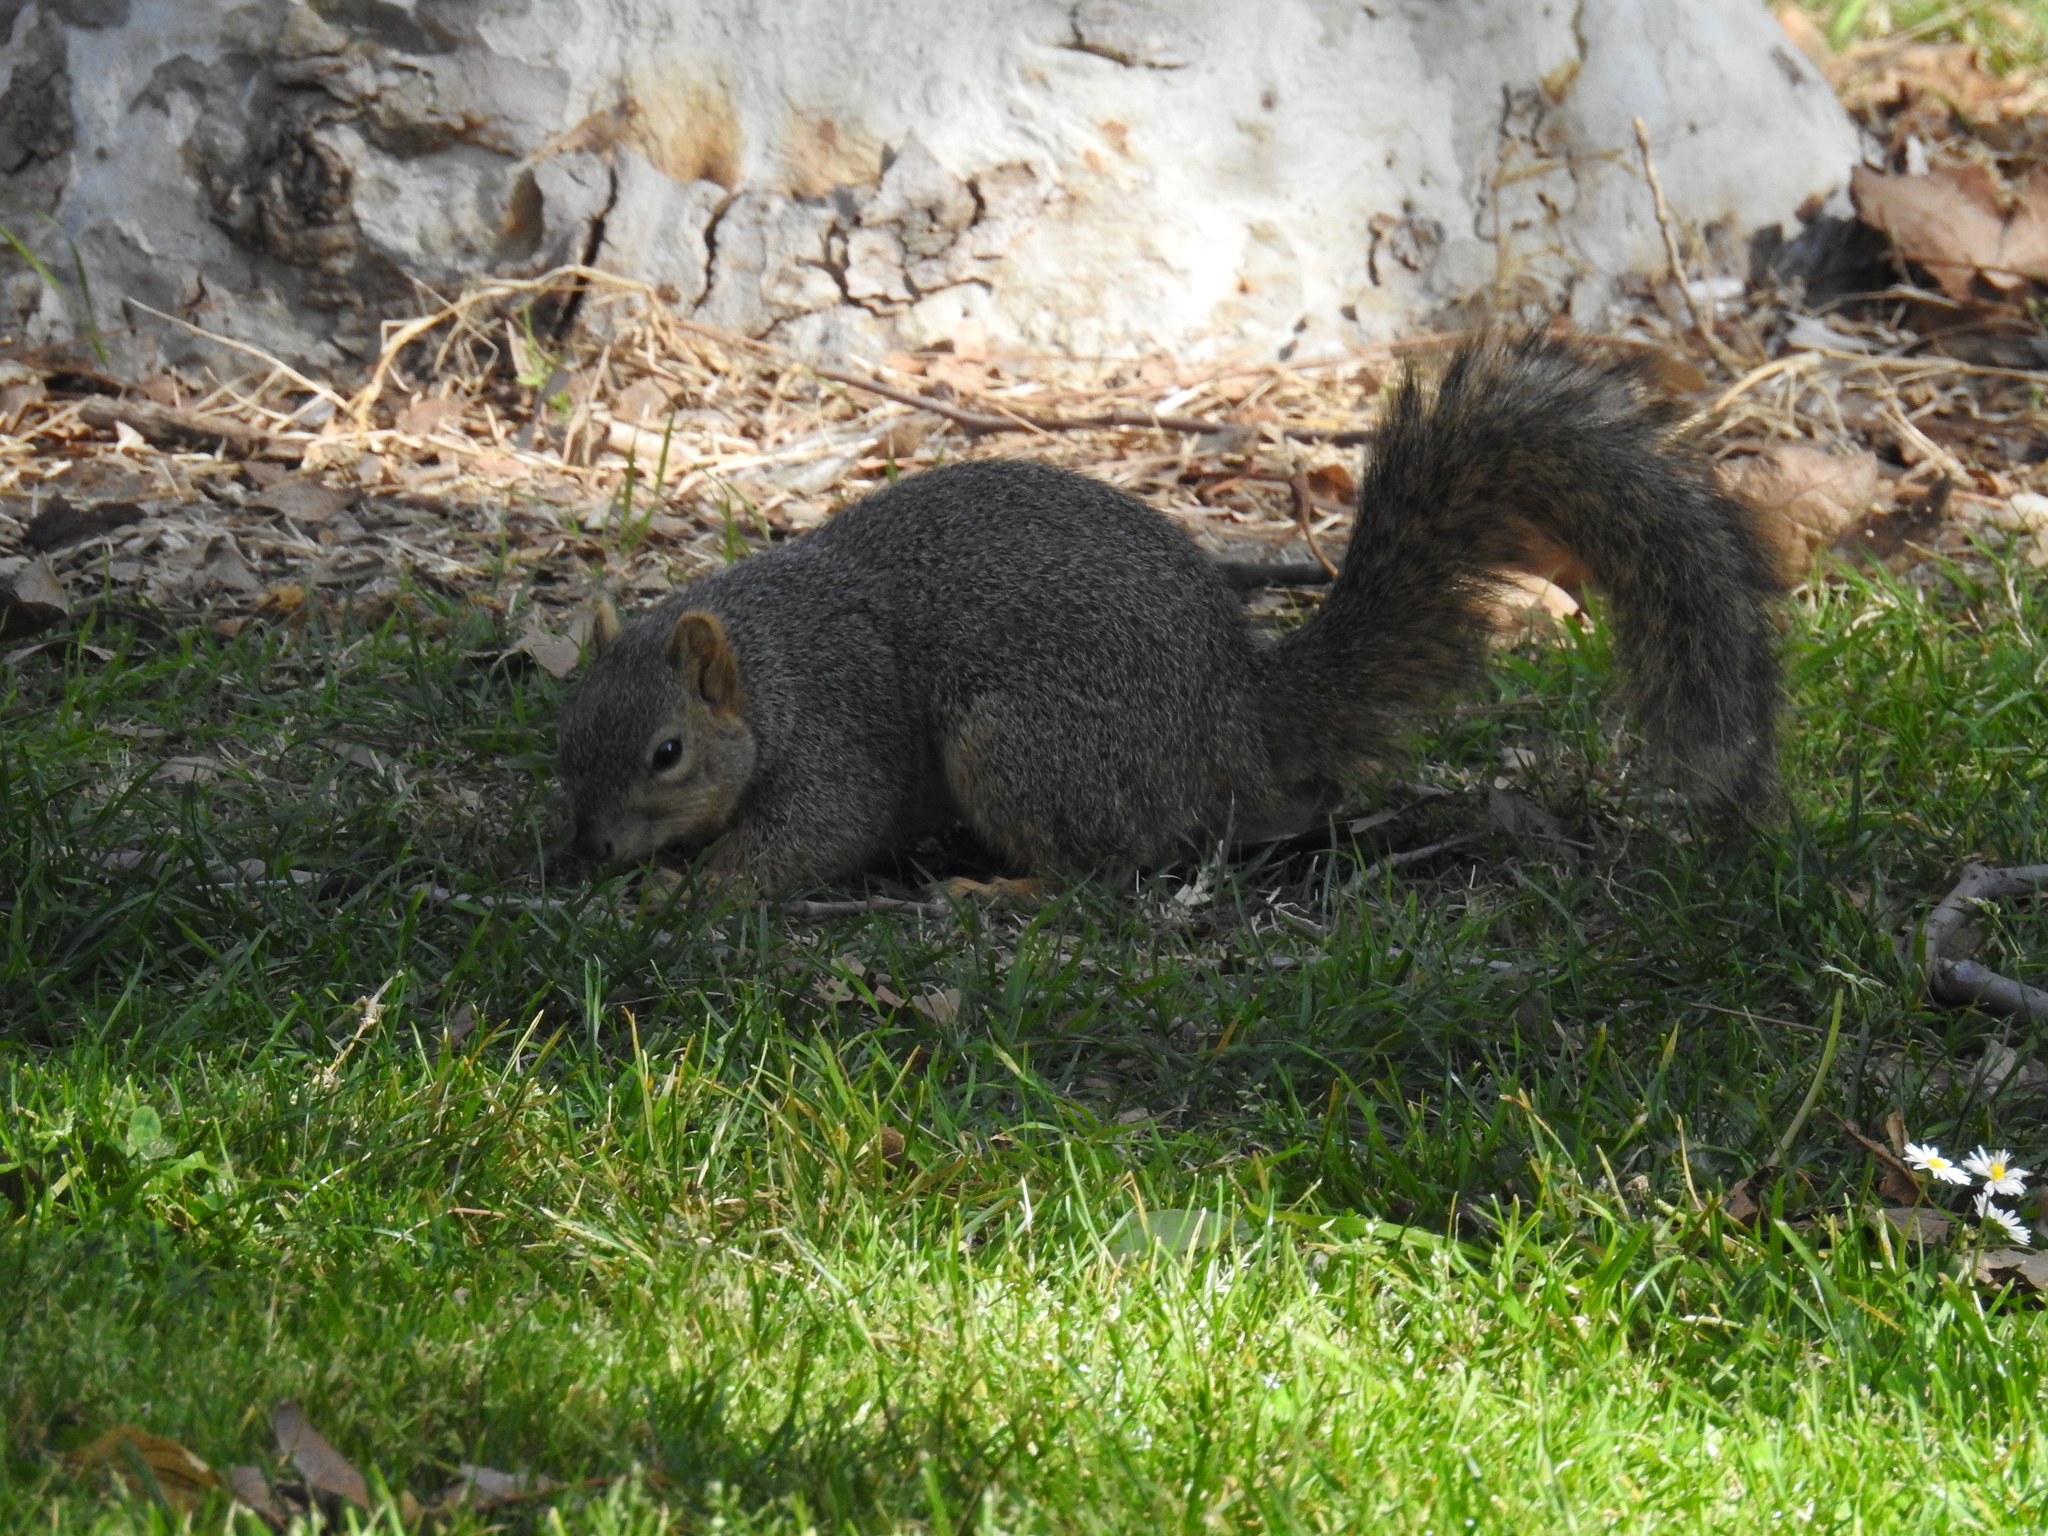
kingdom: Animalia
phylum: Chordata
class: Mammalia
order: Rodentia
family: Sciuridae
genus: Sciurus
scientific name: Sciurus niger
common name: Fox squirrel
